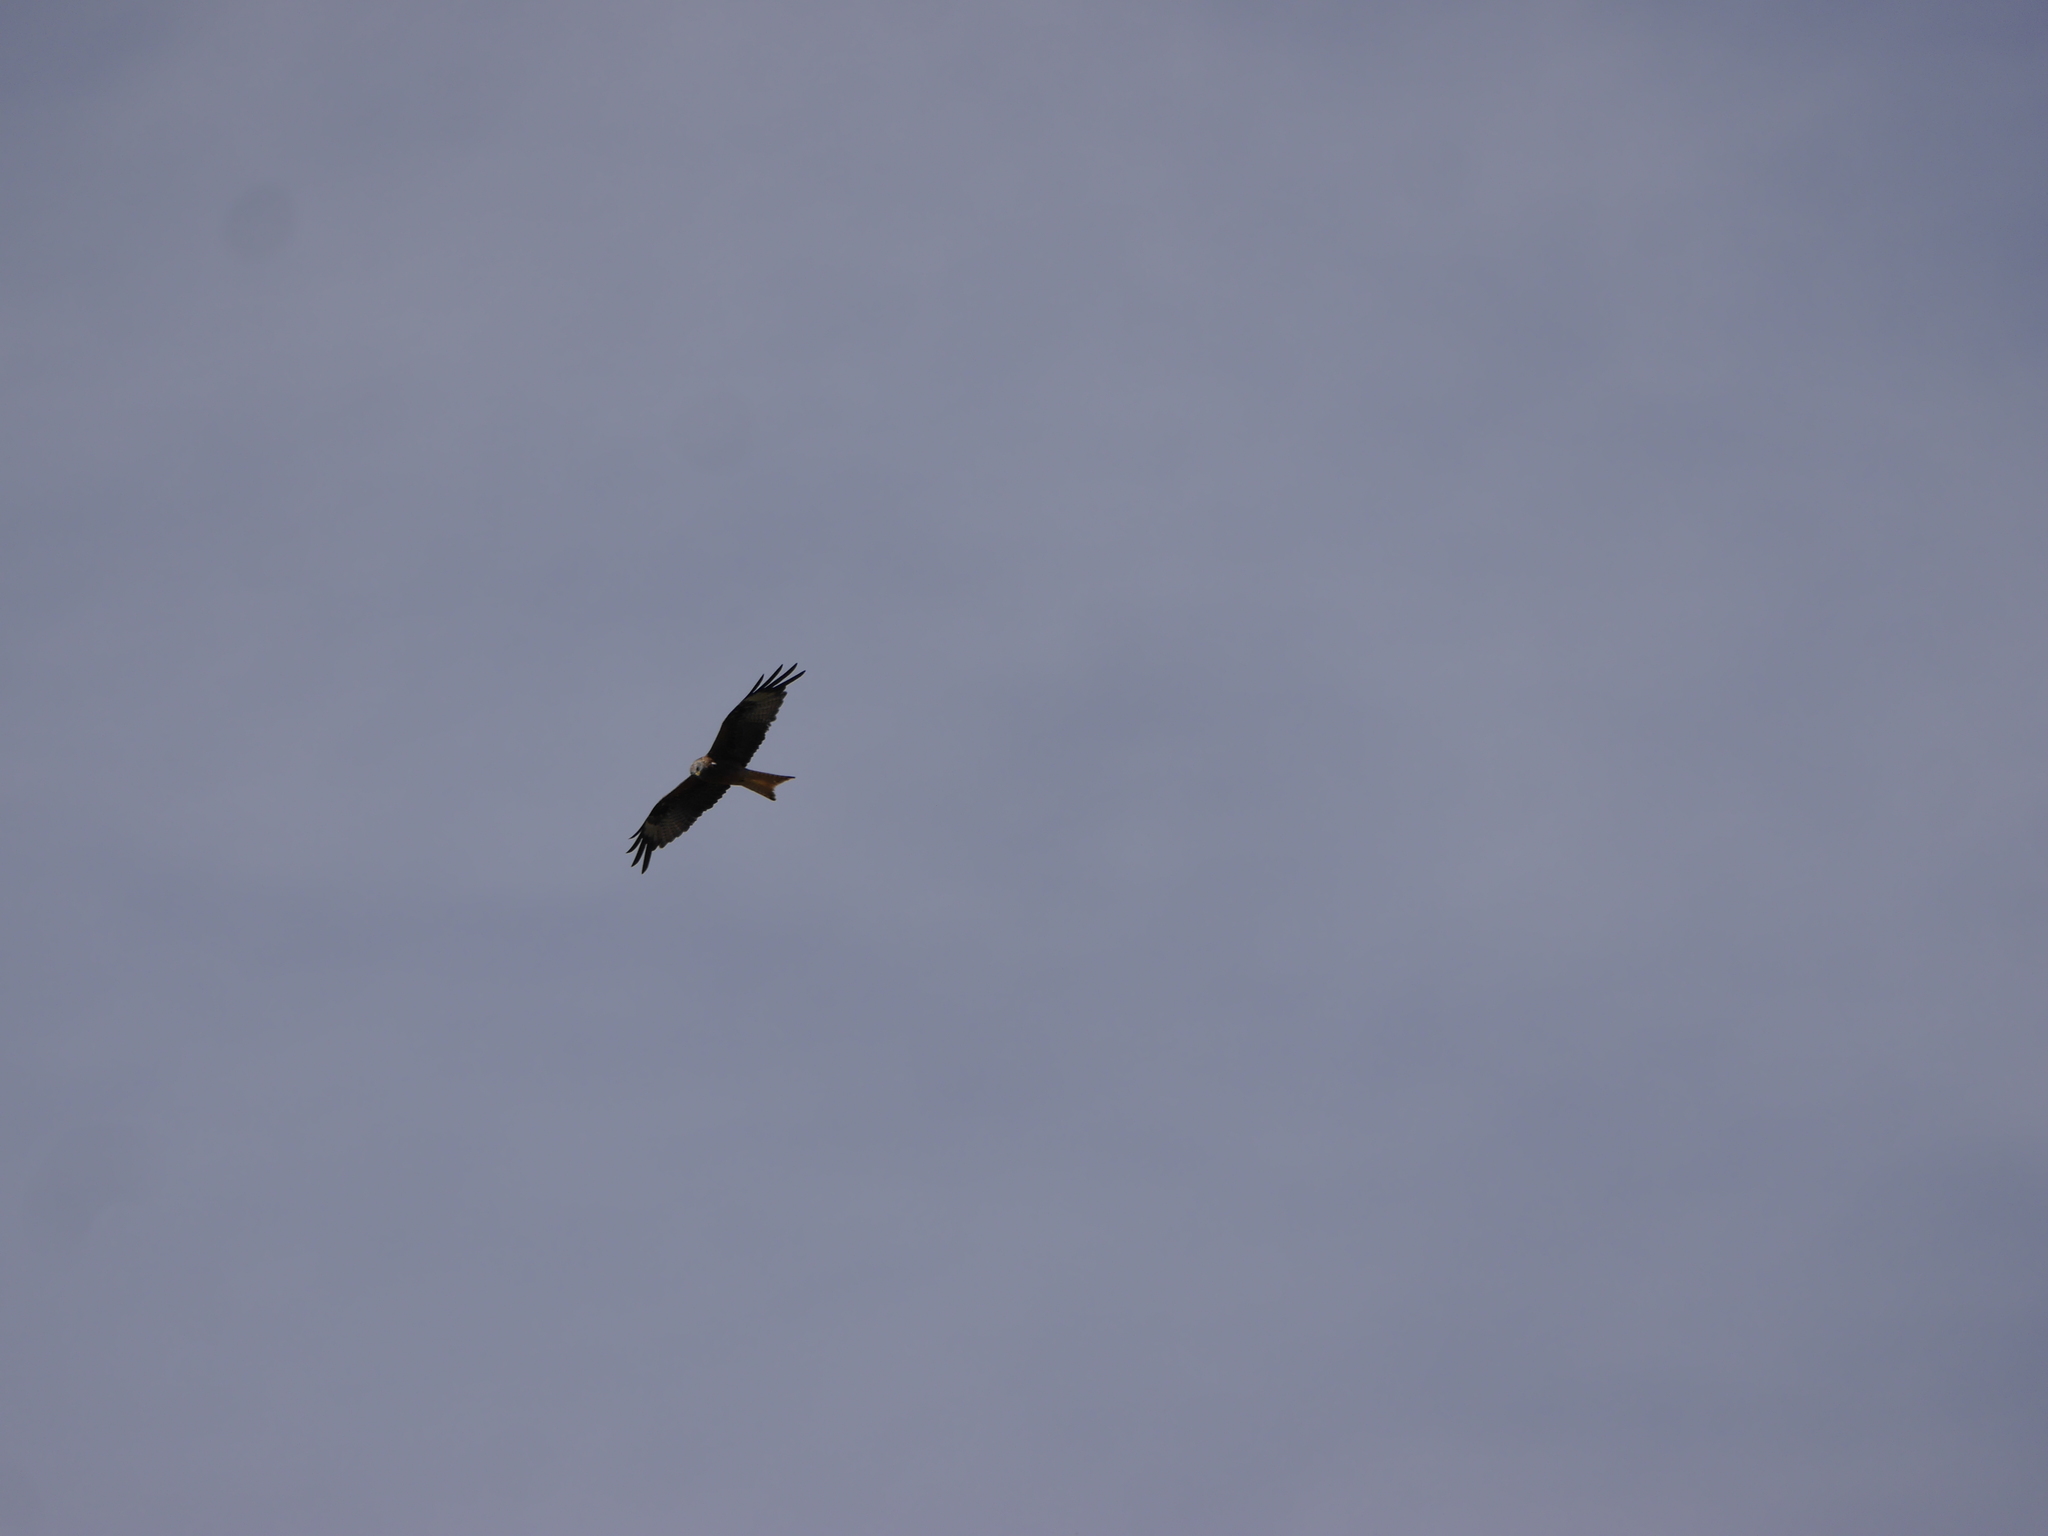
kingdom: Animalia
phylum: Chordata
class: Aves
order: Accipitriformes
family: Accipitridae
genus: Milvus
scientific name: Milvus milvus
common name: Red kite
